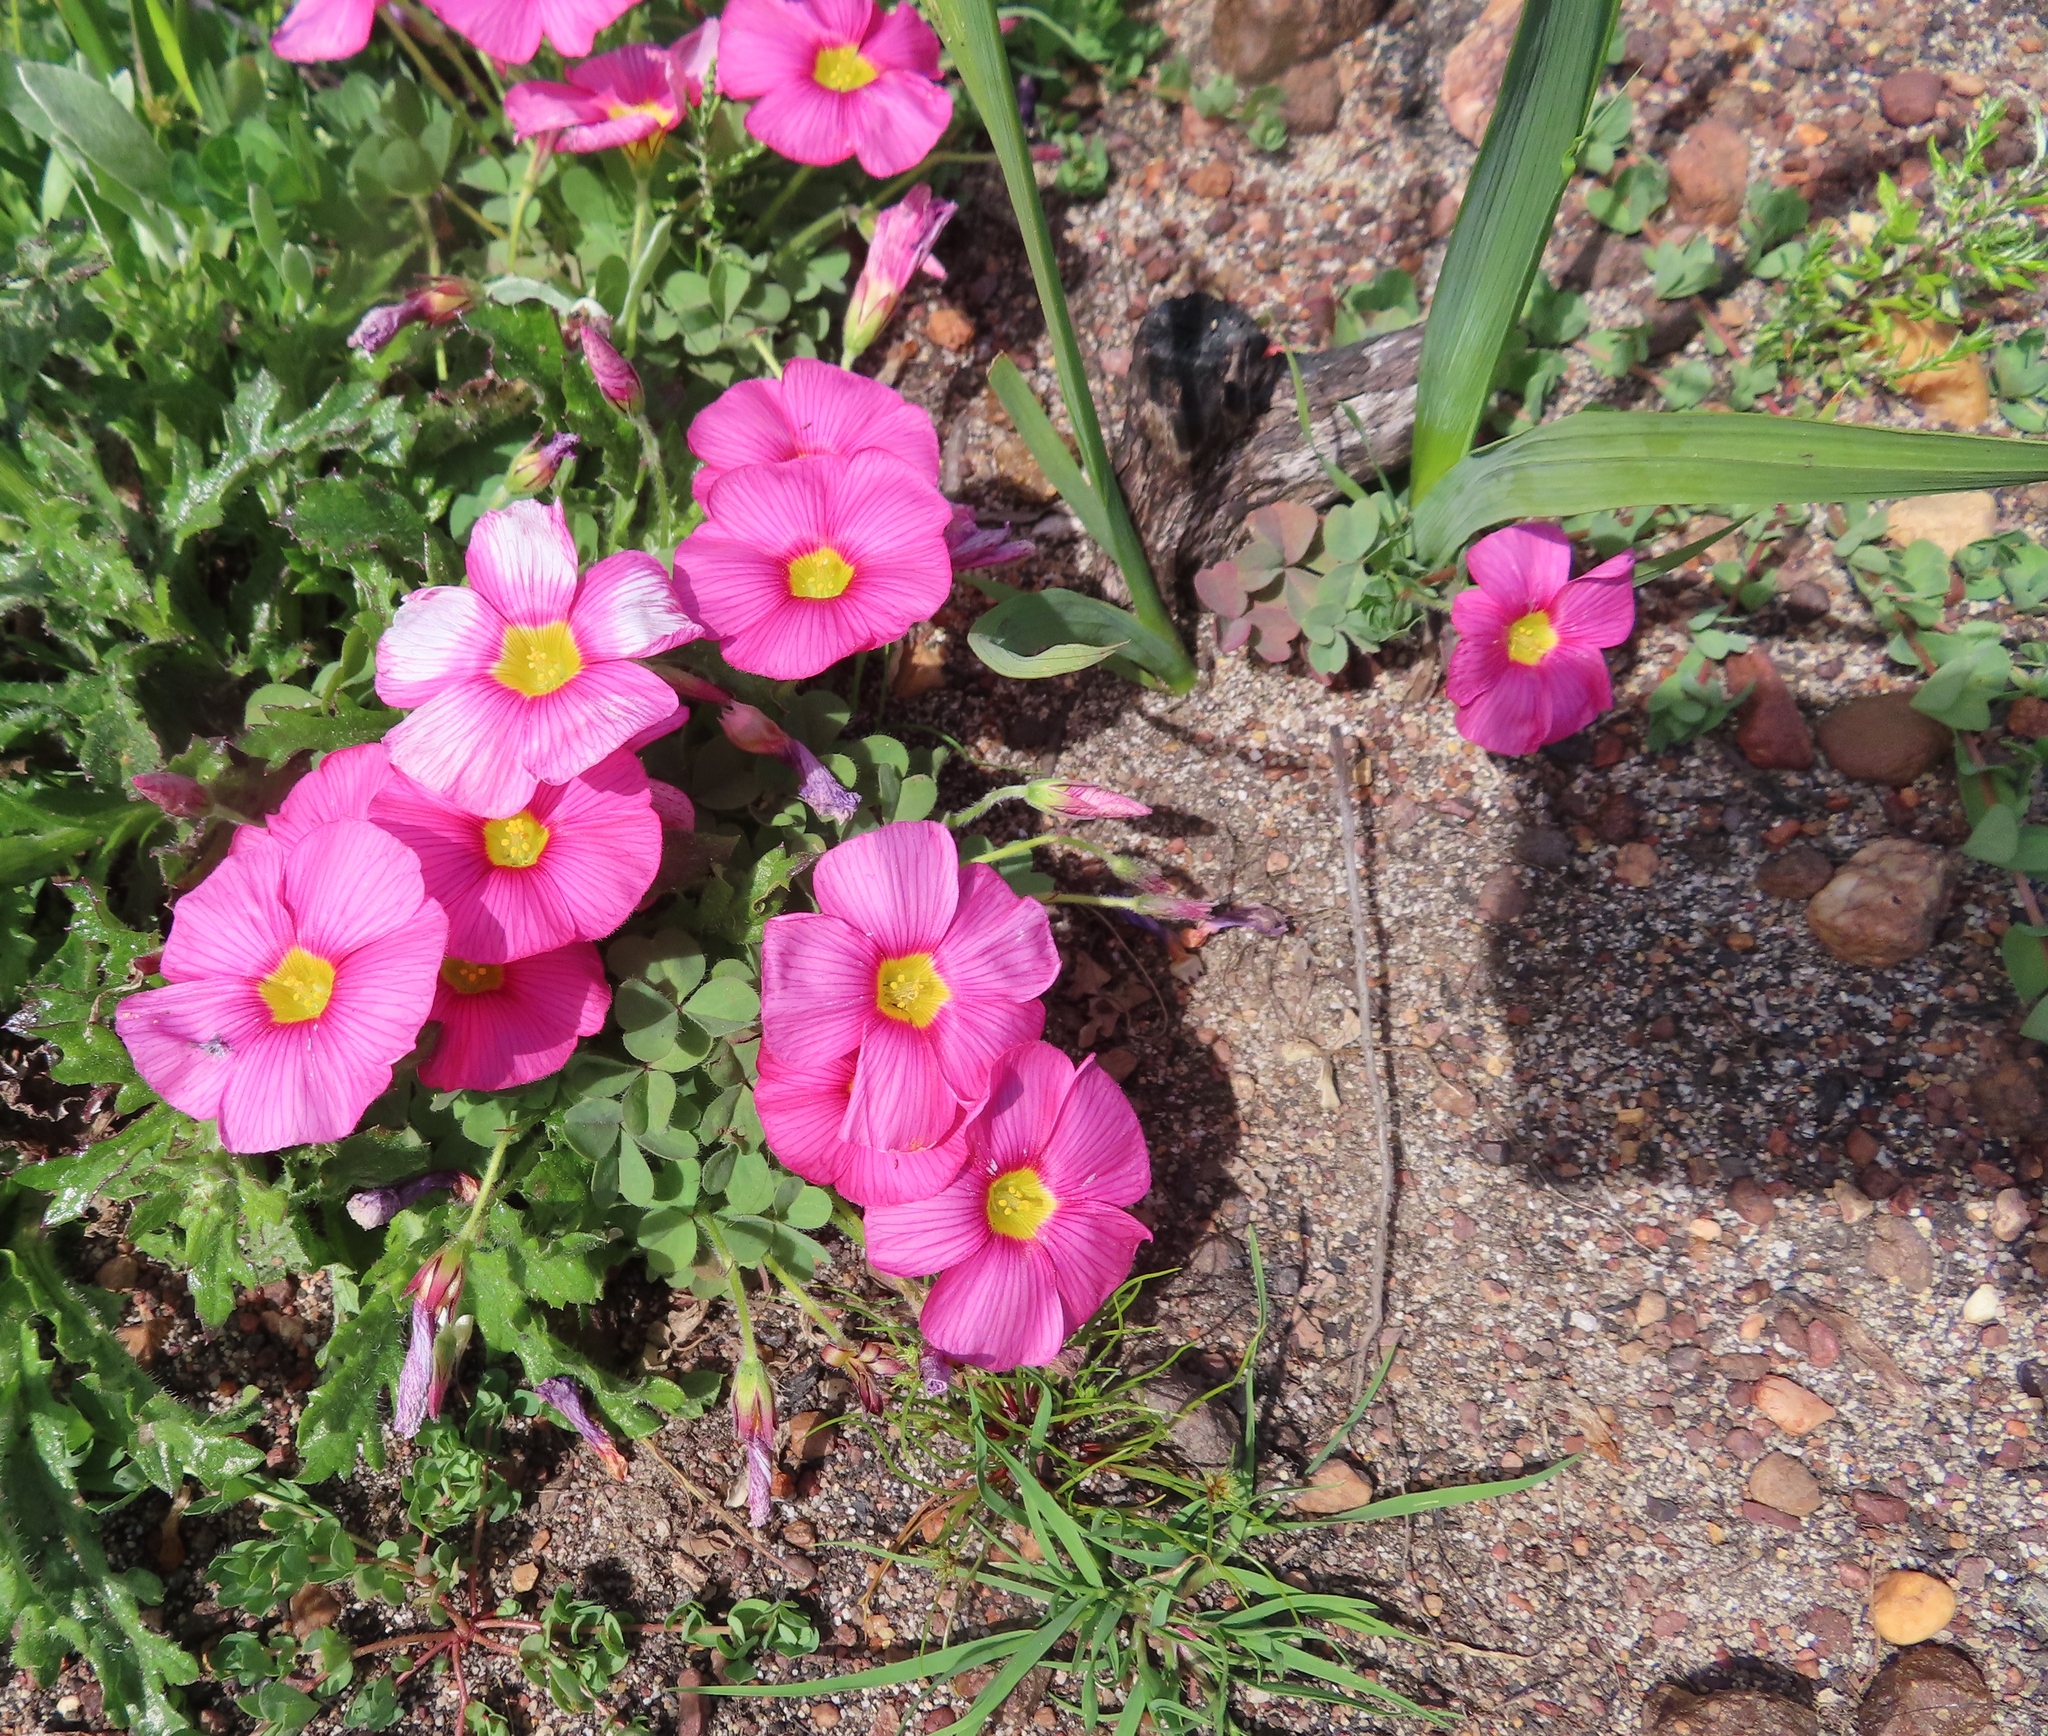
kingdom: Plantae
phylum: Tracheophyta
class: Magnoliopsida
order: Oxalidales
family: Oxalidaceae
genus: Oxalis
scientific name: Oxalis obtusa
